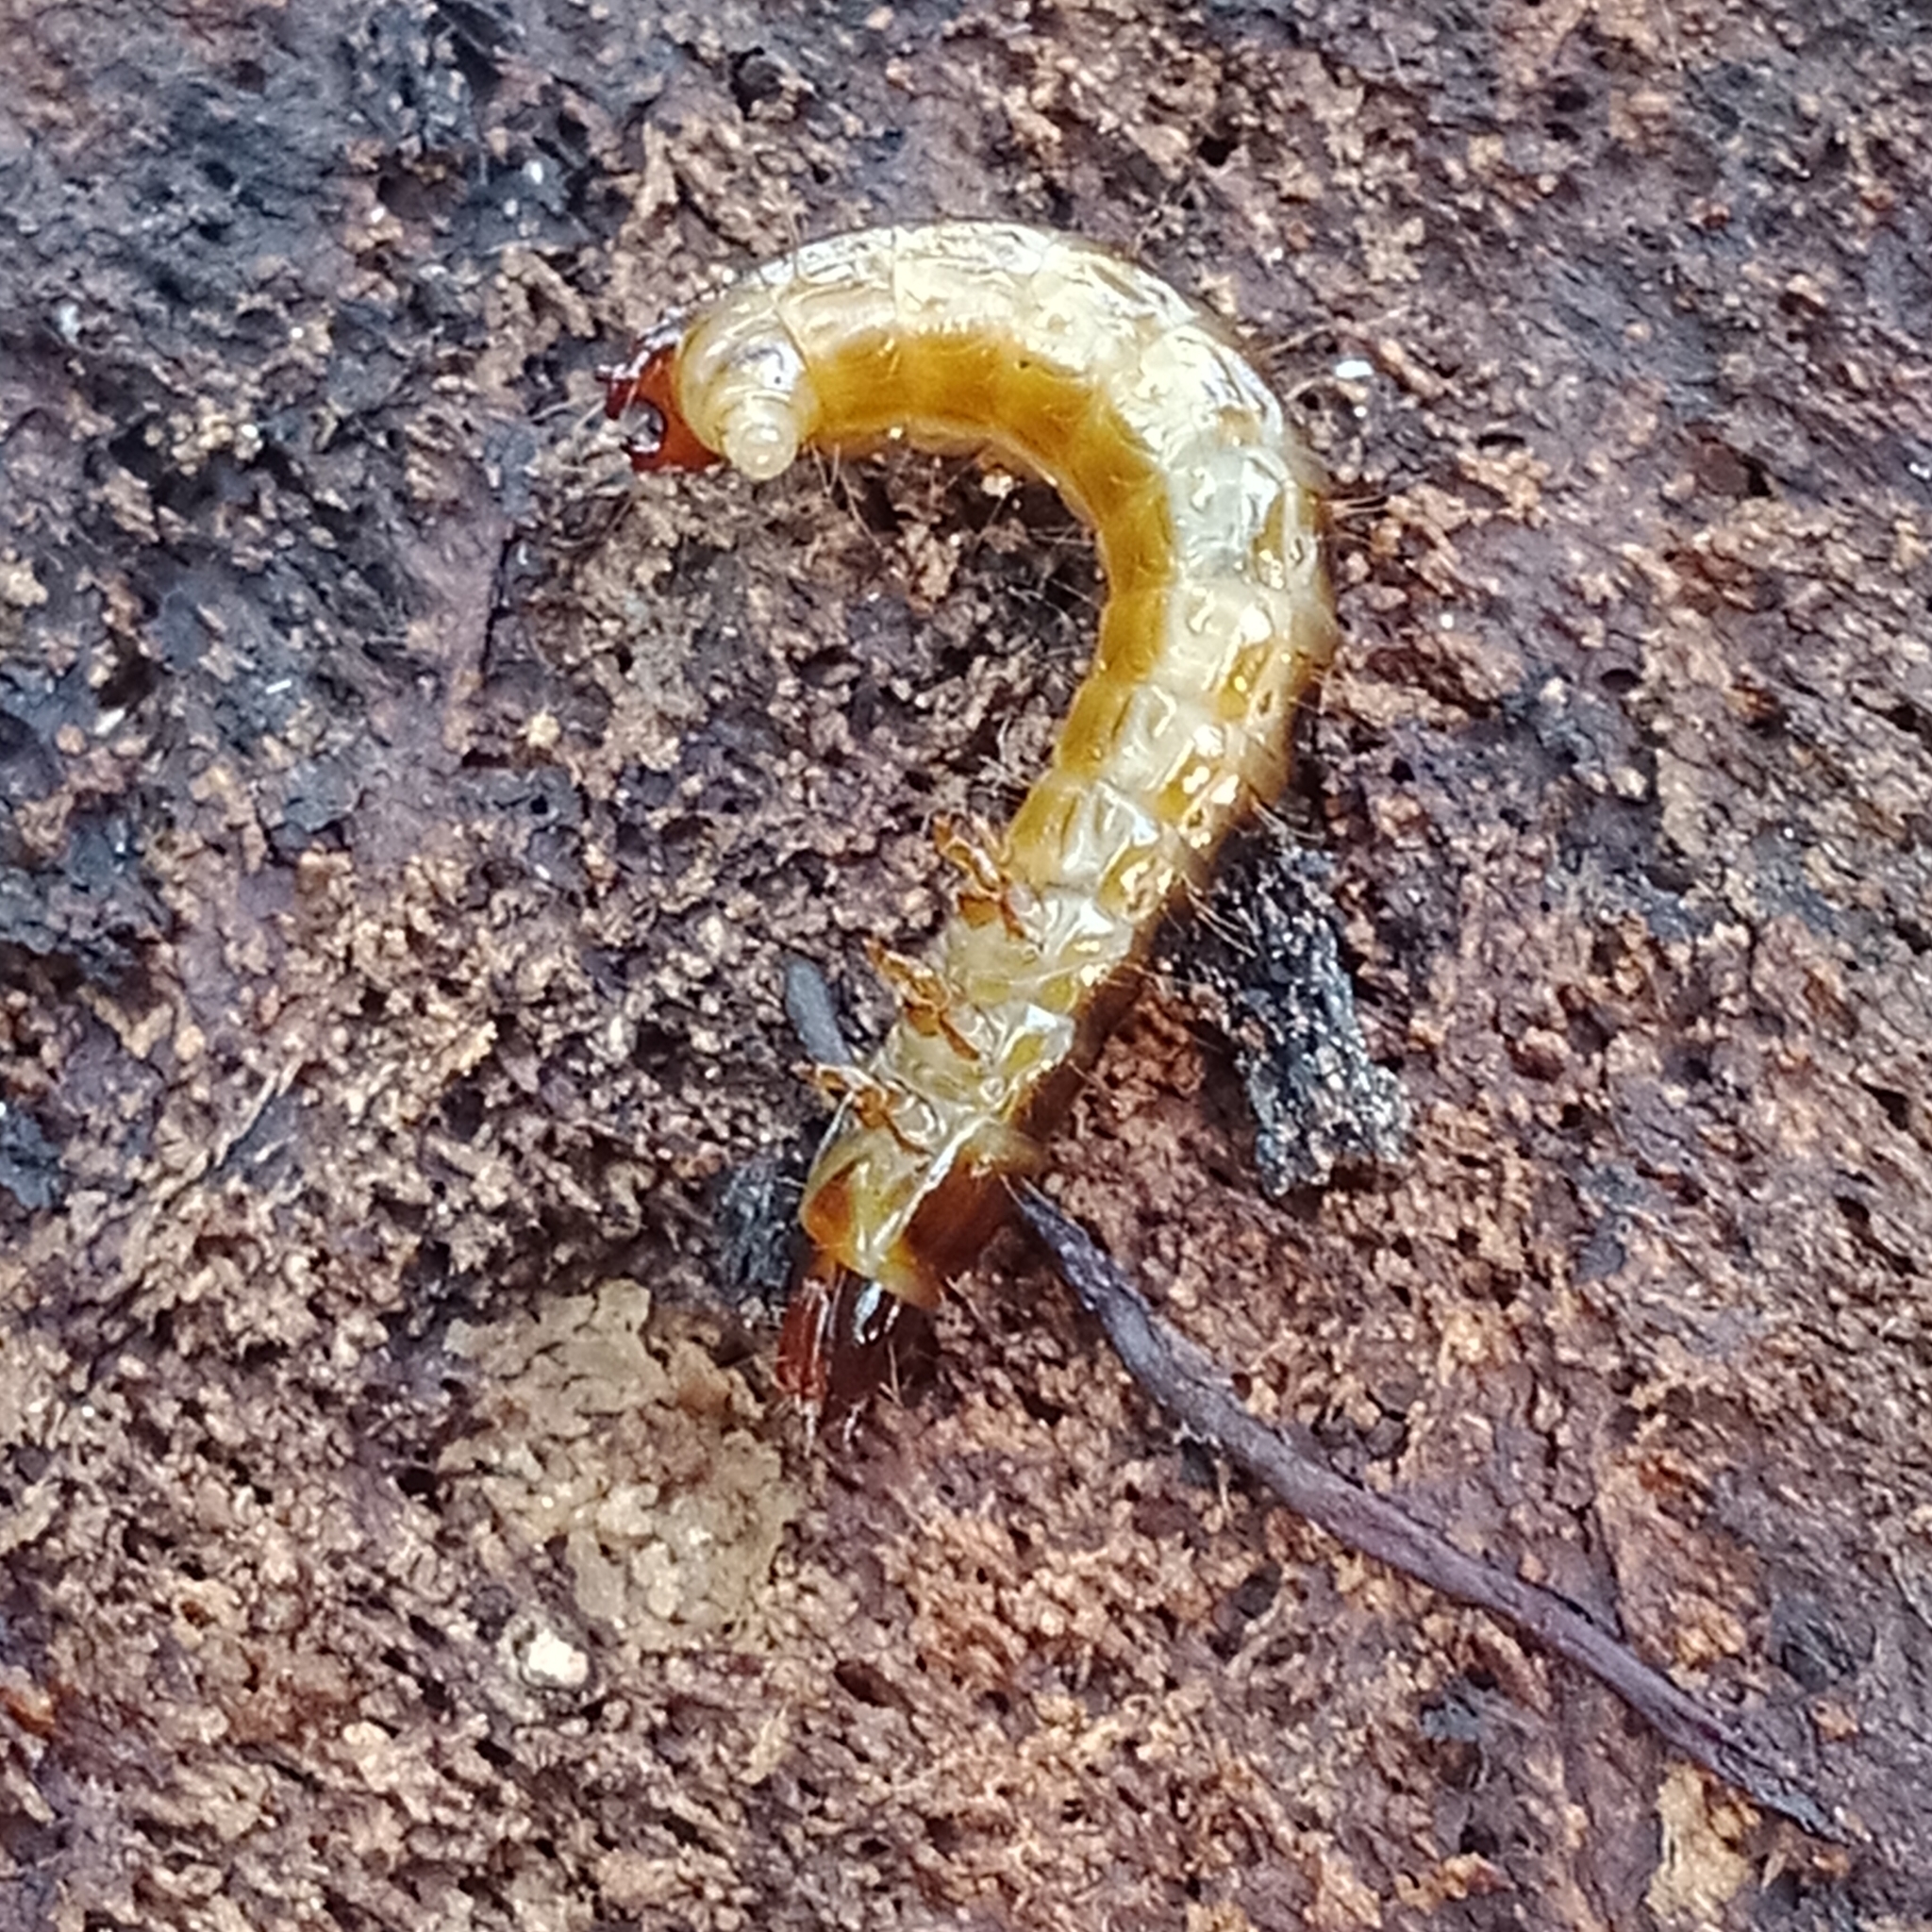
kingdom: Animalia
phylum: Arthropoda
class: Insecta
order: Coleoptera
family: Elateridae
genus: Diacanthous
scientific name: Diacanthous undulatus
